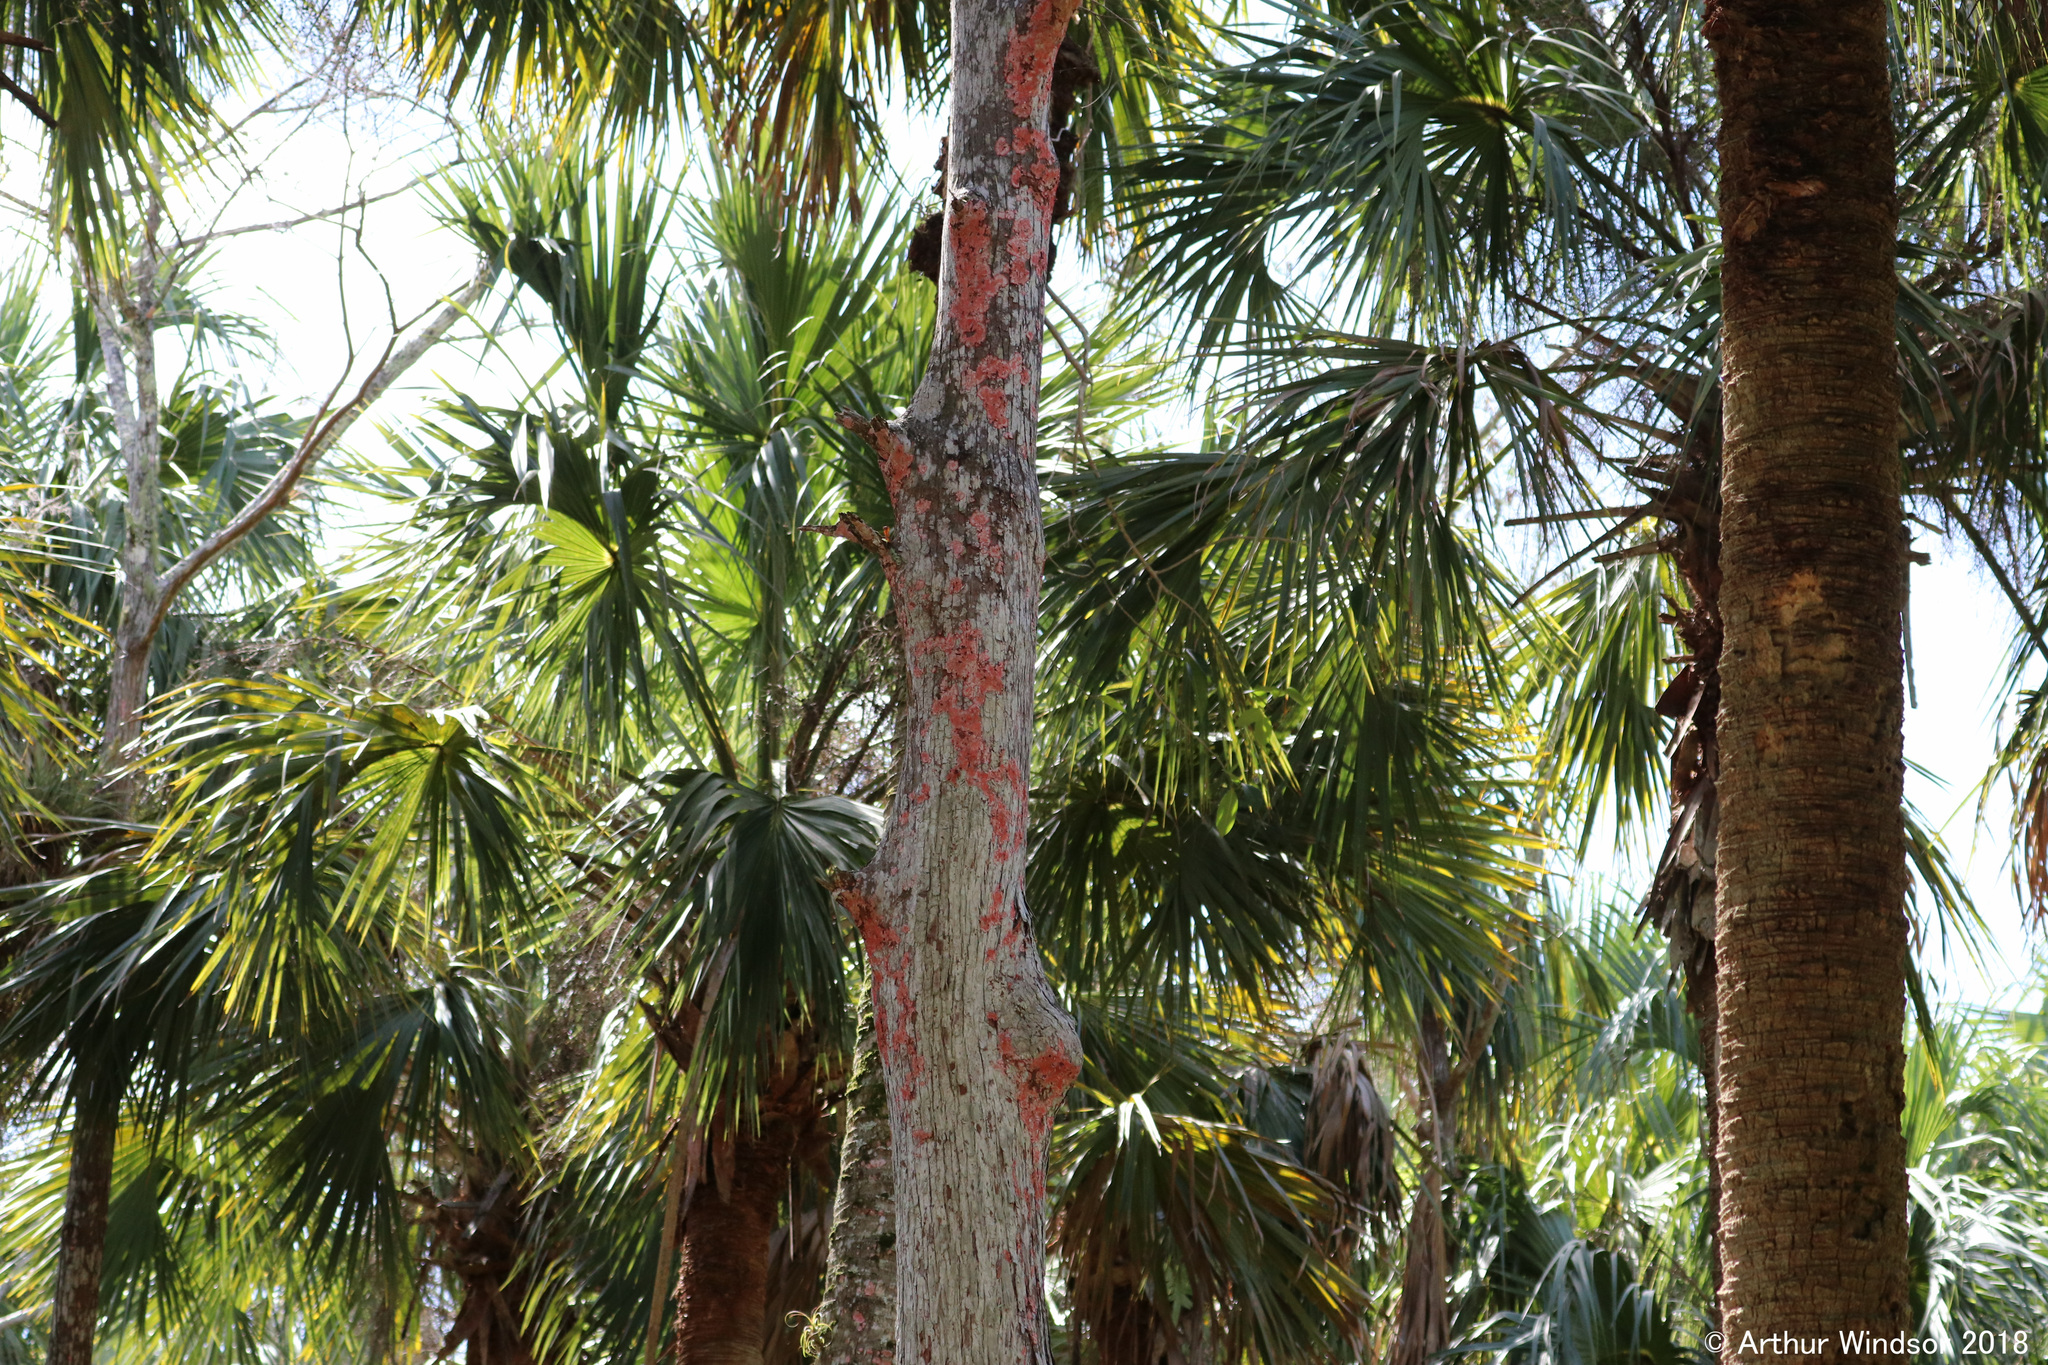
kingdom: Fungi
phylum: Ascomycota
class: Arthoniomycetes
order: Arthoniales
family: Arthoniaceae
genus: Herpothallon
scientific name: Herpothallon rubrocinctum
